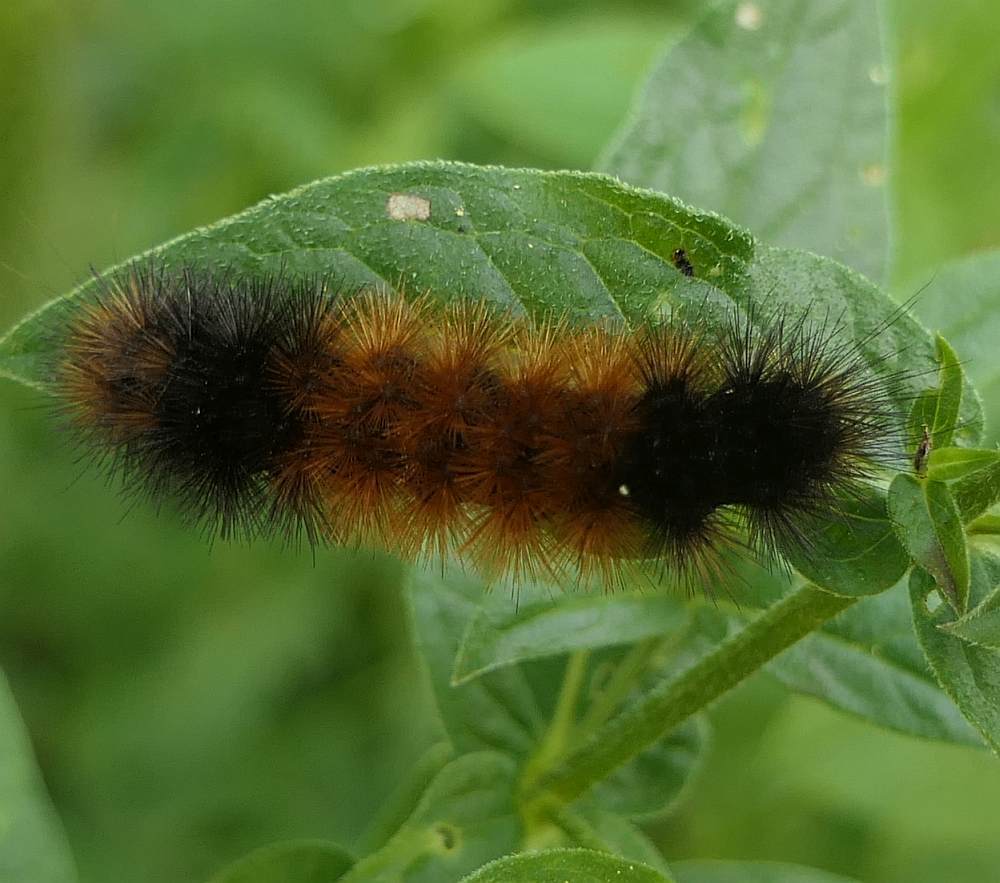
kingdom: Animalia
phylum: Arthropoda
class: Insecta
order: Lepidoptera
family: Erebidae
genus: Pyrrharctia
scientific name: Pyrrharctia isabella
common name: Isabella tiger moth
